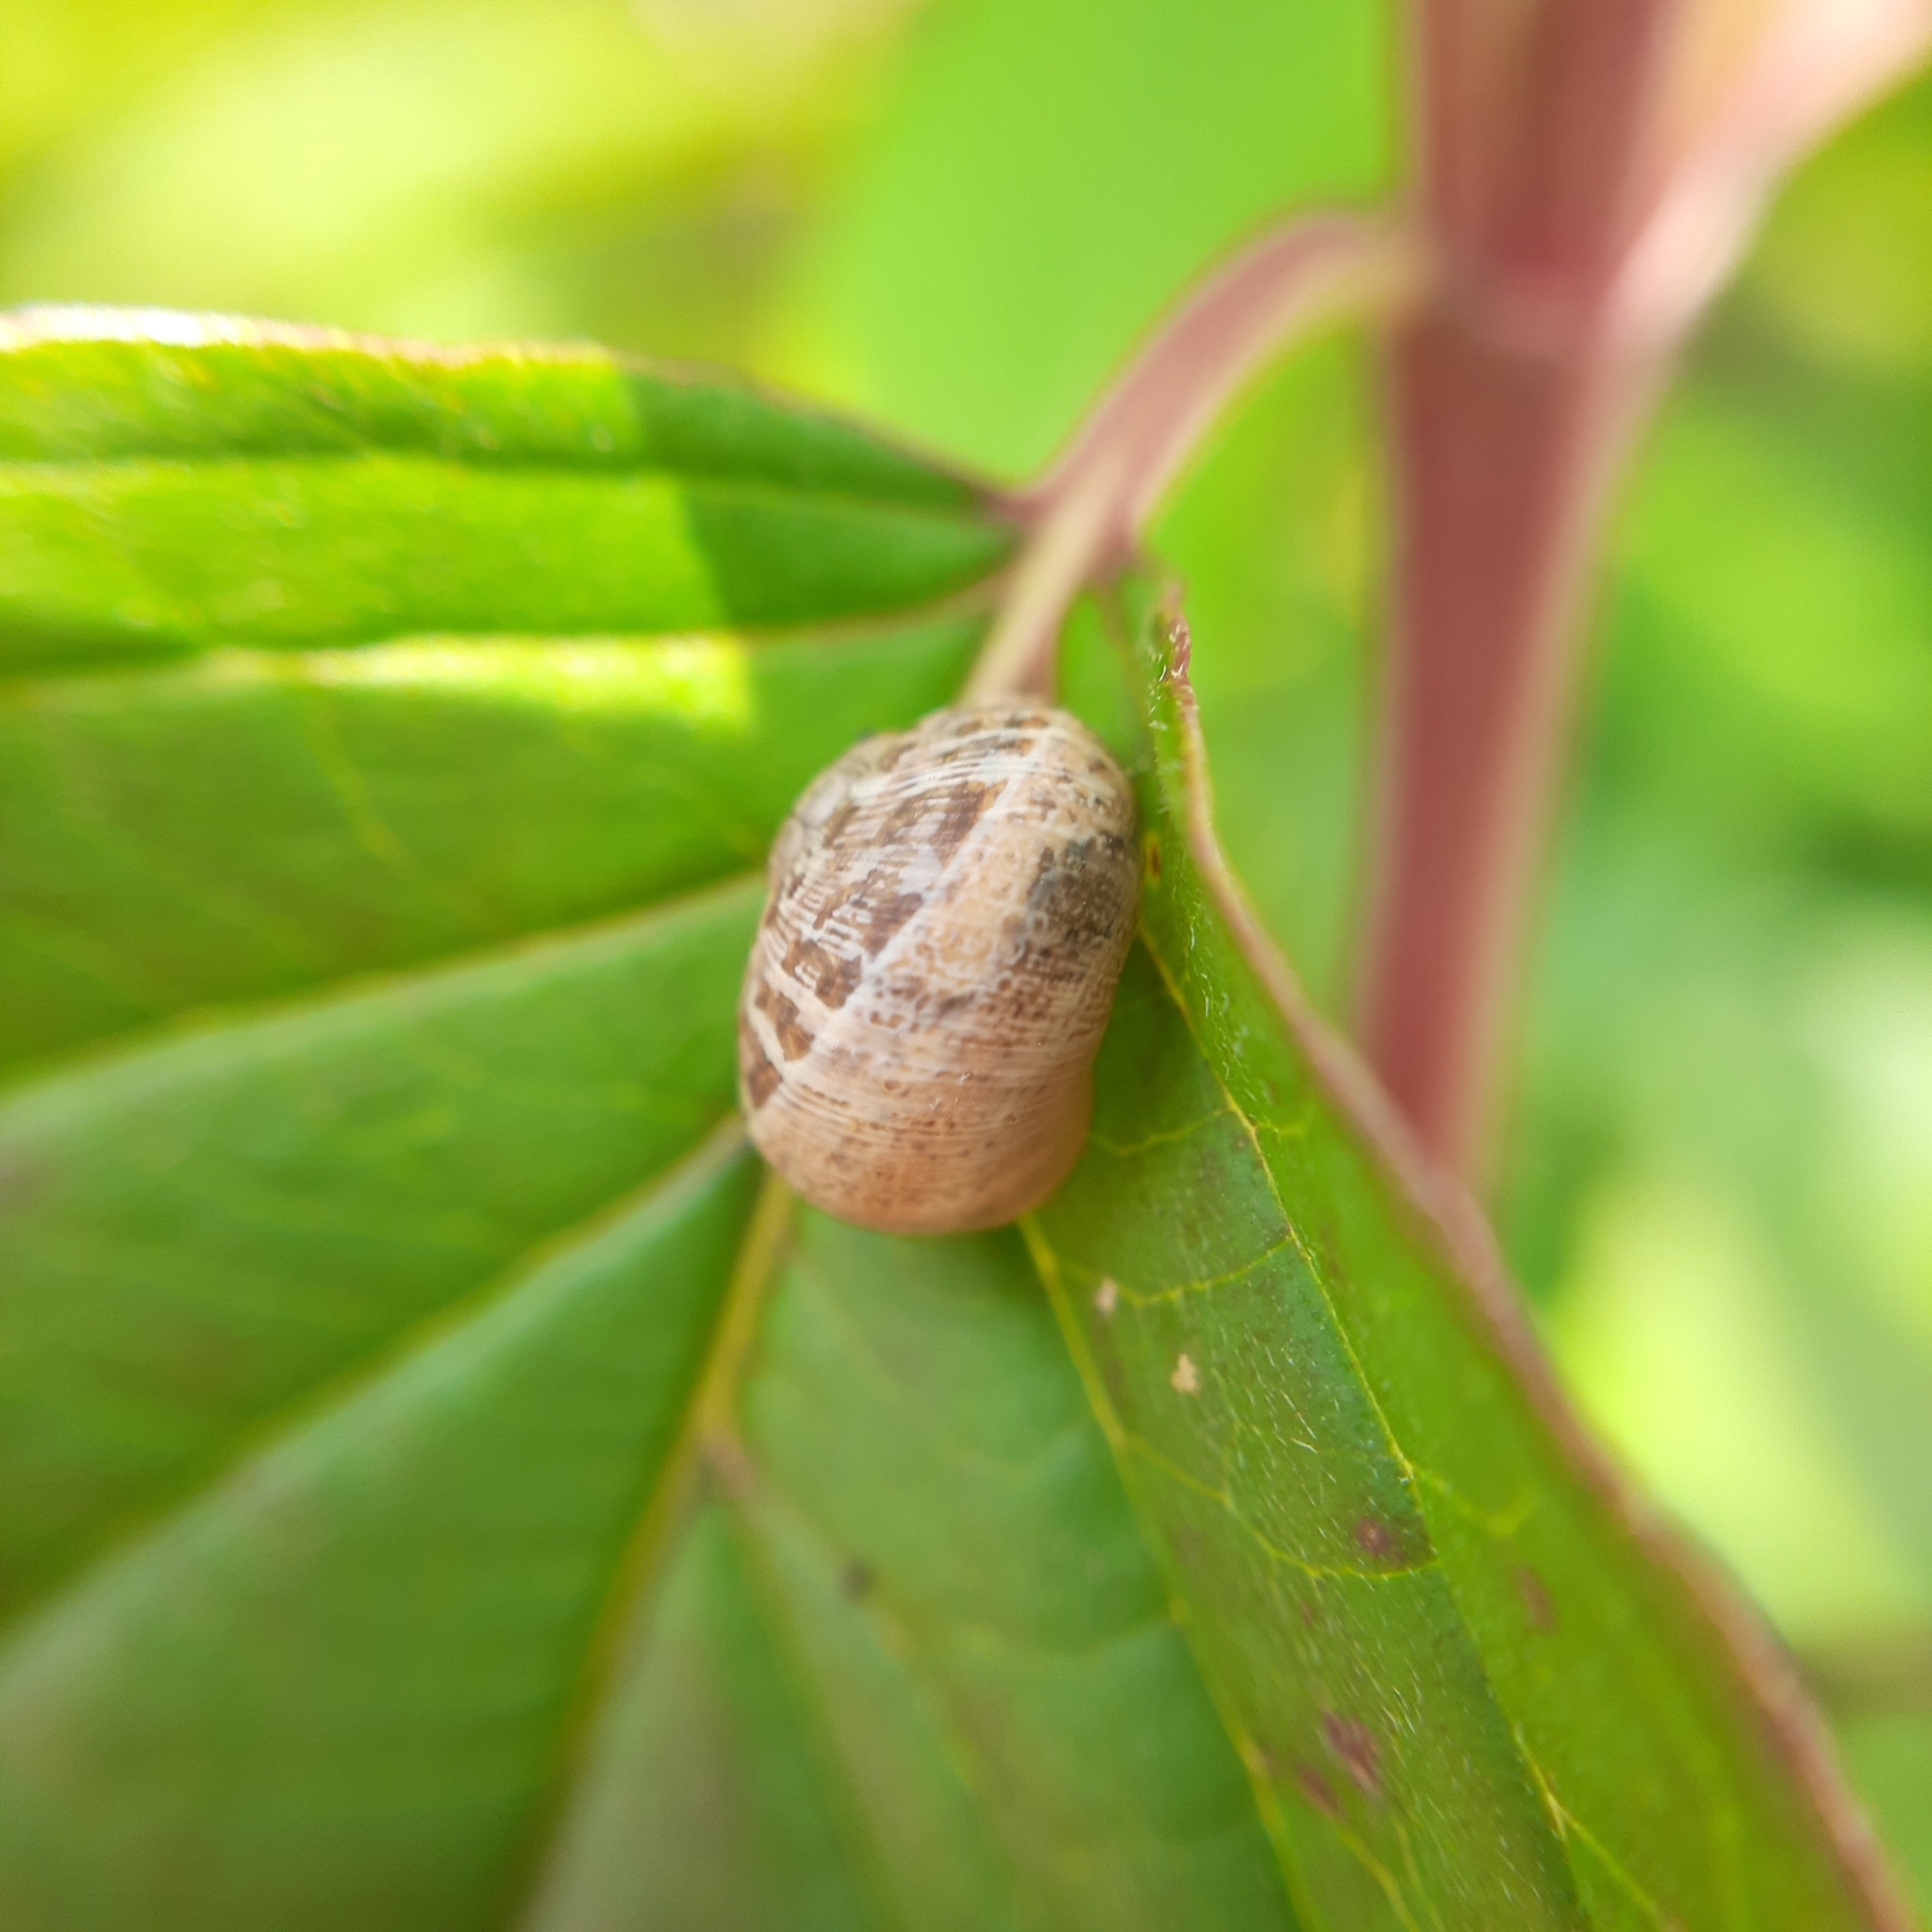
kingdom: Animalia
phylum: Mollusca
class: Gastropoda
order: Stylommatophora
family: Helicidae
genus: Cornu
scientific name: Cornu aspersum
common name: Brown garden snail
